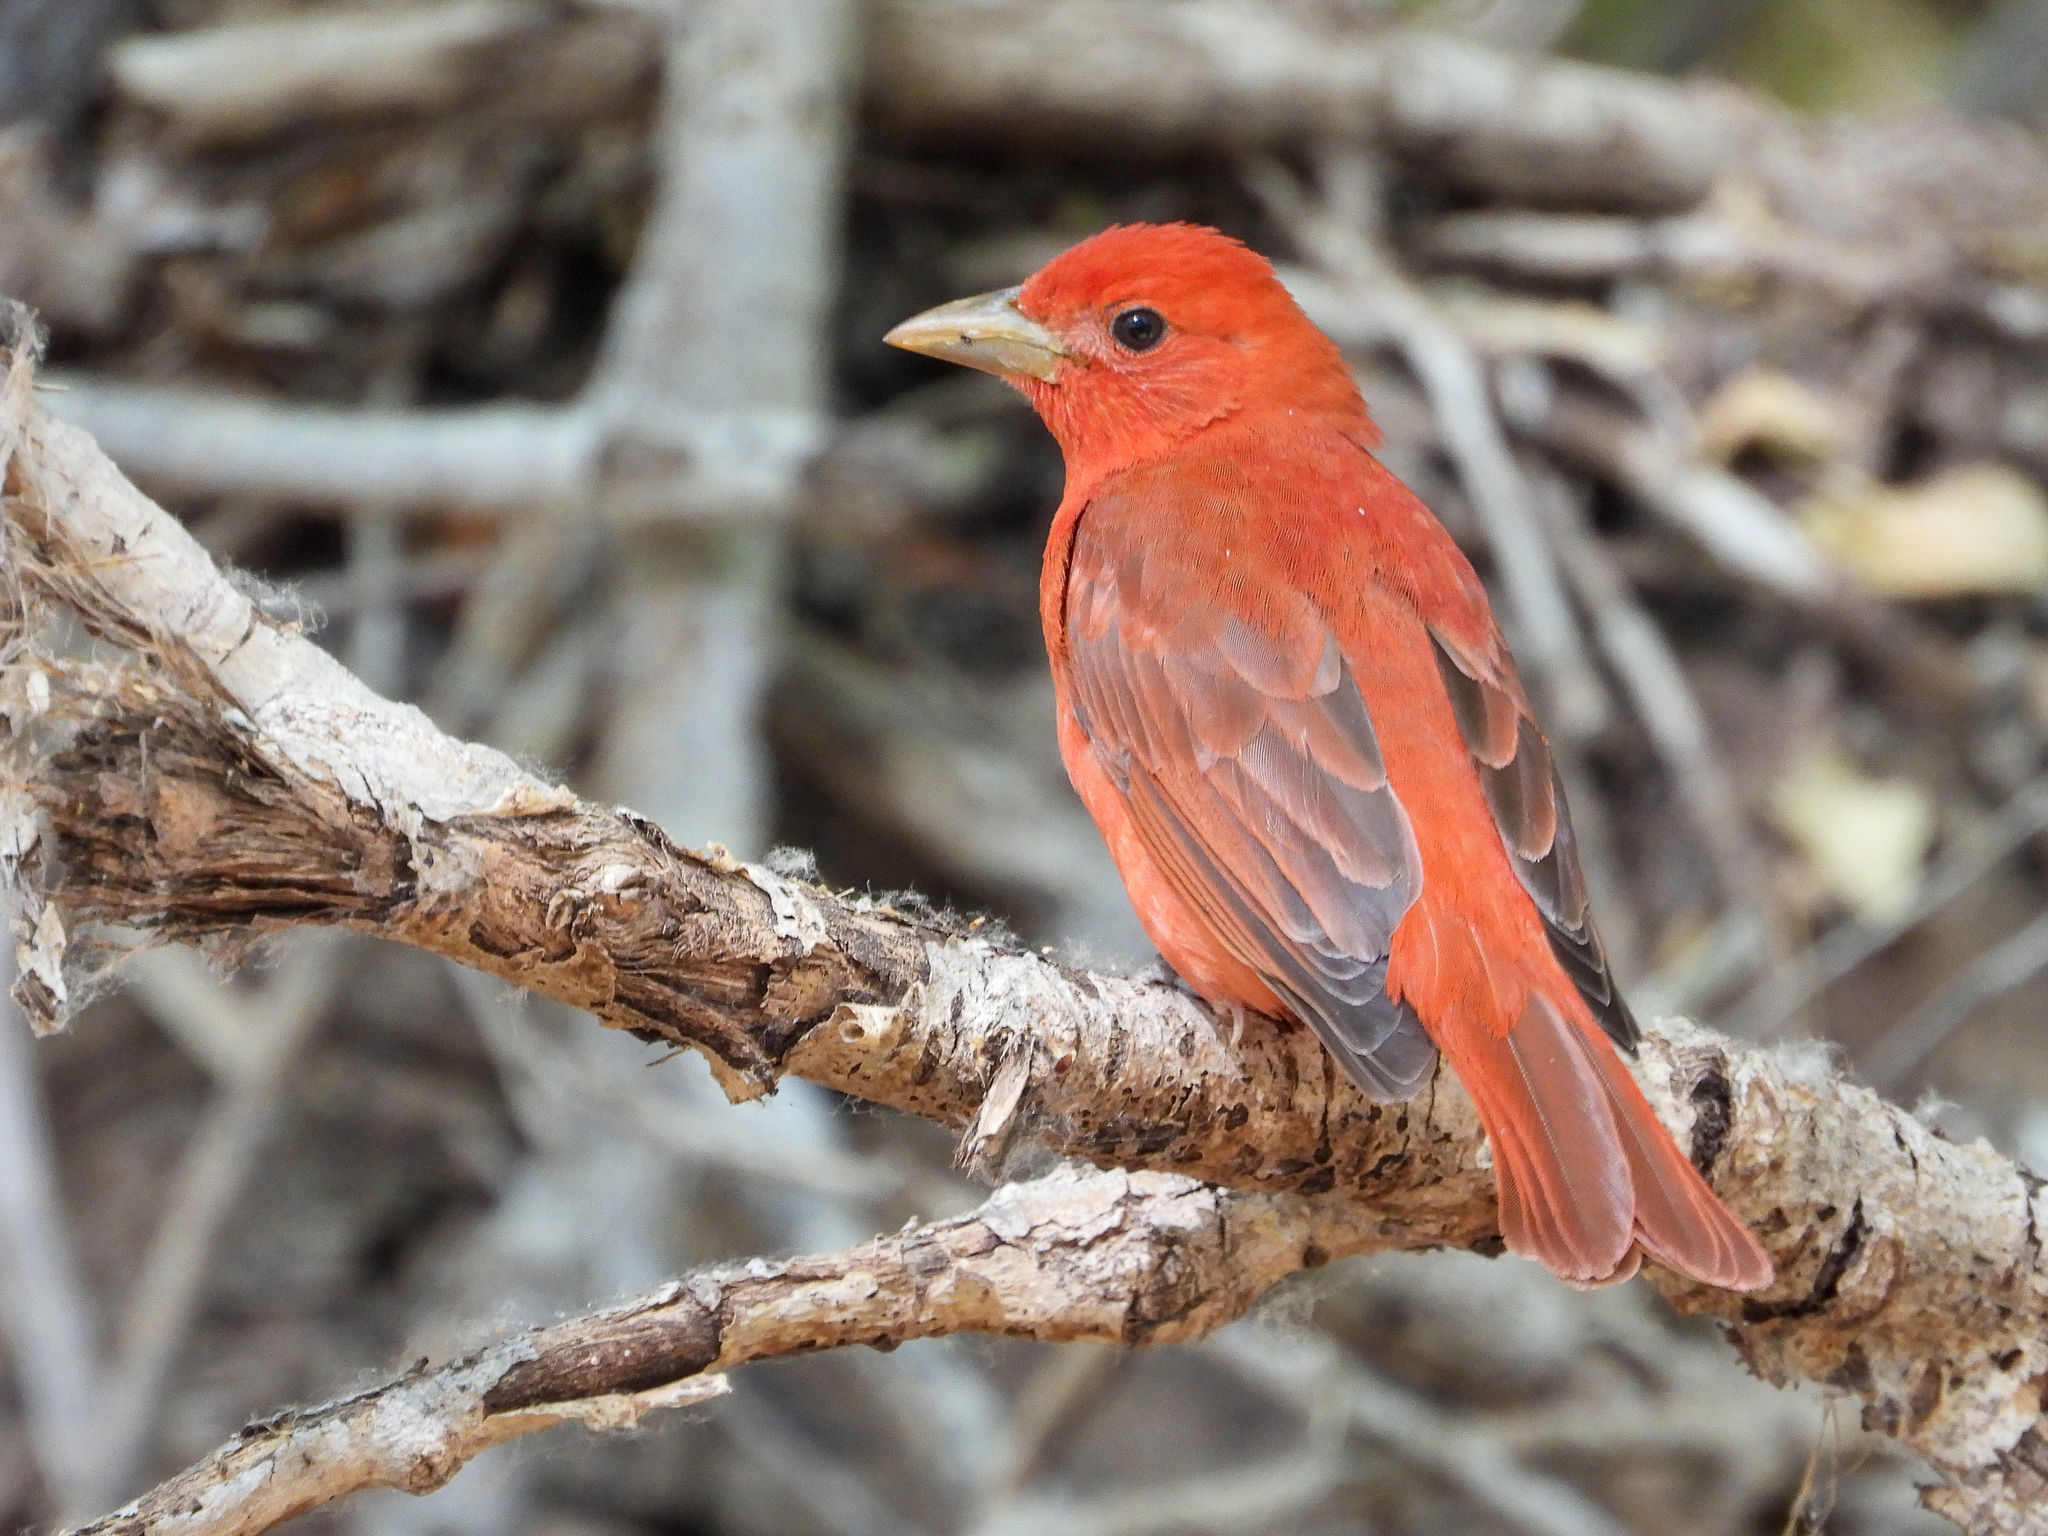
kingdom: Animalia
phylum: Chordata
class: Aves
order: Passeriformes
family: Cardinalidae
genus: Piranga
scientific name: Piranga rubra
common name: Summer tanager
